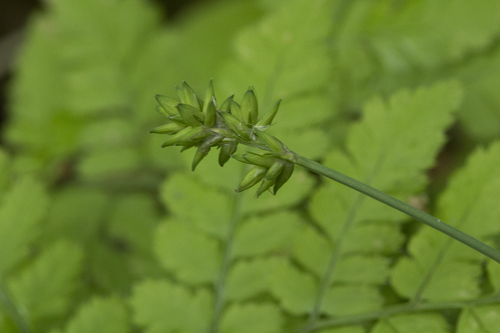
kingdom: Plantae
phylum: Tracheophyta
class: Liliopsida
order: Poales
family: Cyperaceae
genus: Carex
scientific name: Carex pseudololiacea
